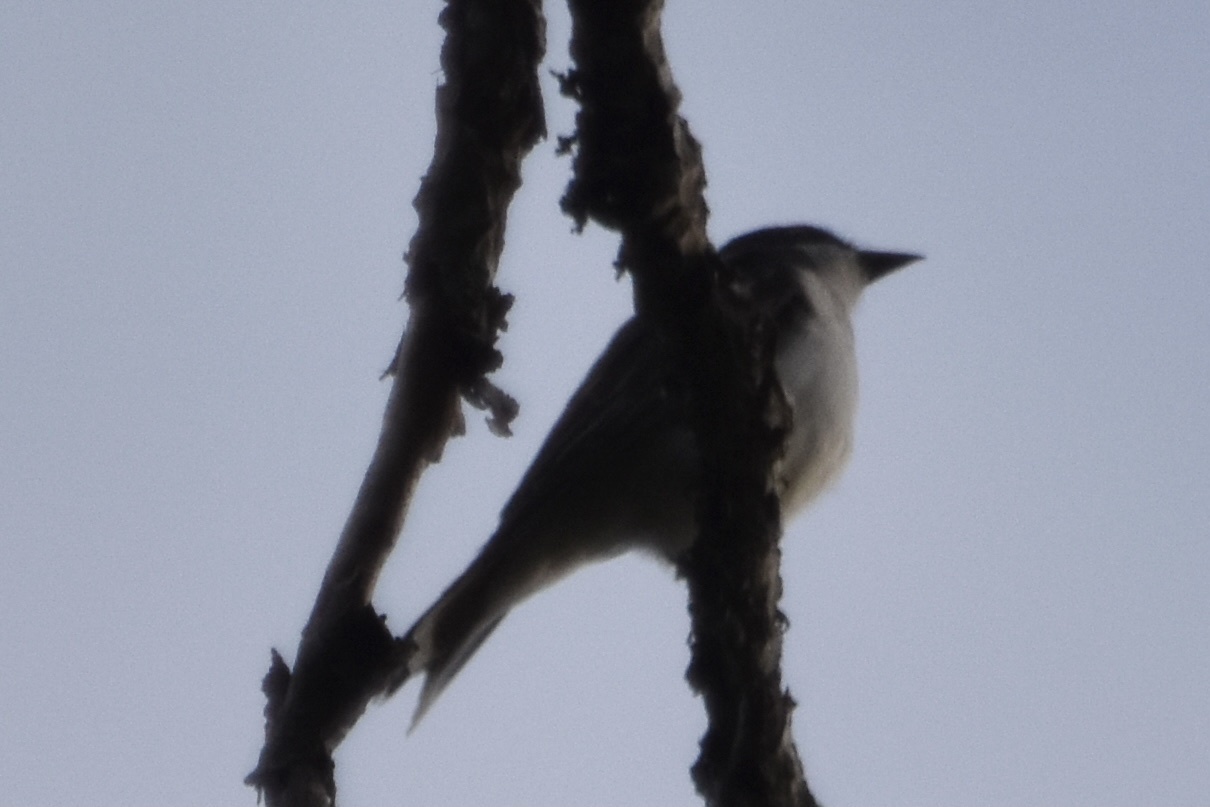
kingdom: Animalia
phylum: Chordata
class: Aves
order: Passeriformes
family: Tyrannidae
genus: Tyrannus
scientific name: Tyrannus tyrannus
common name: Eastern kingbird
